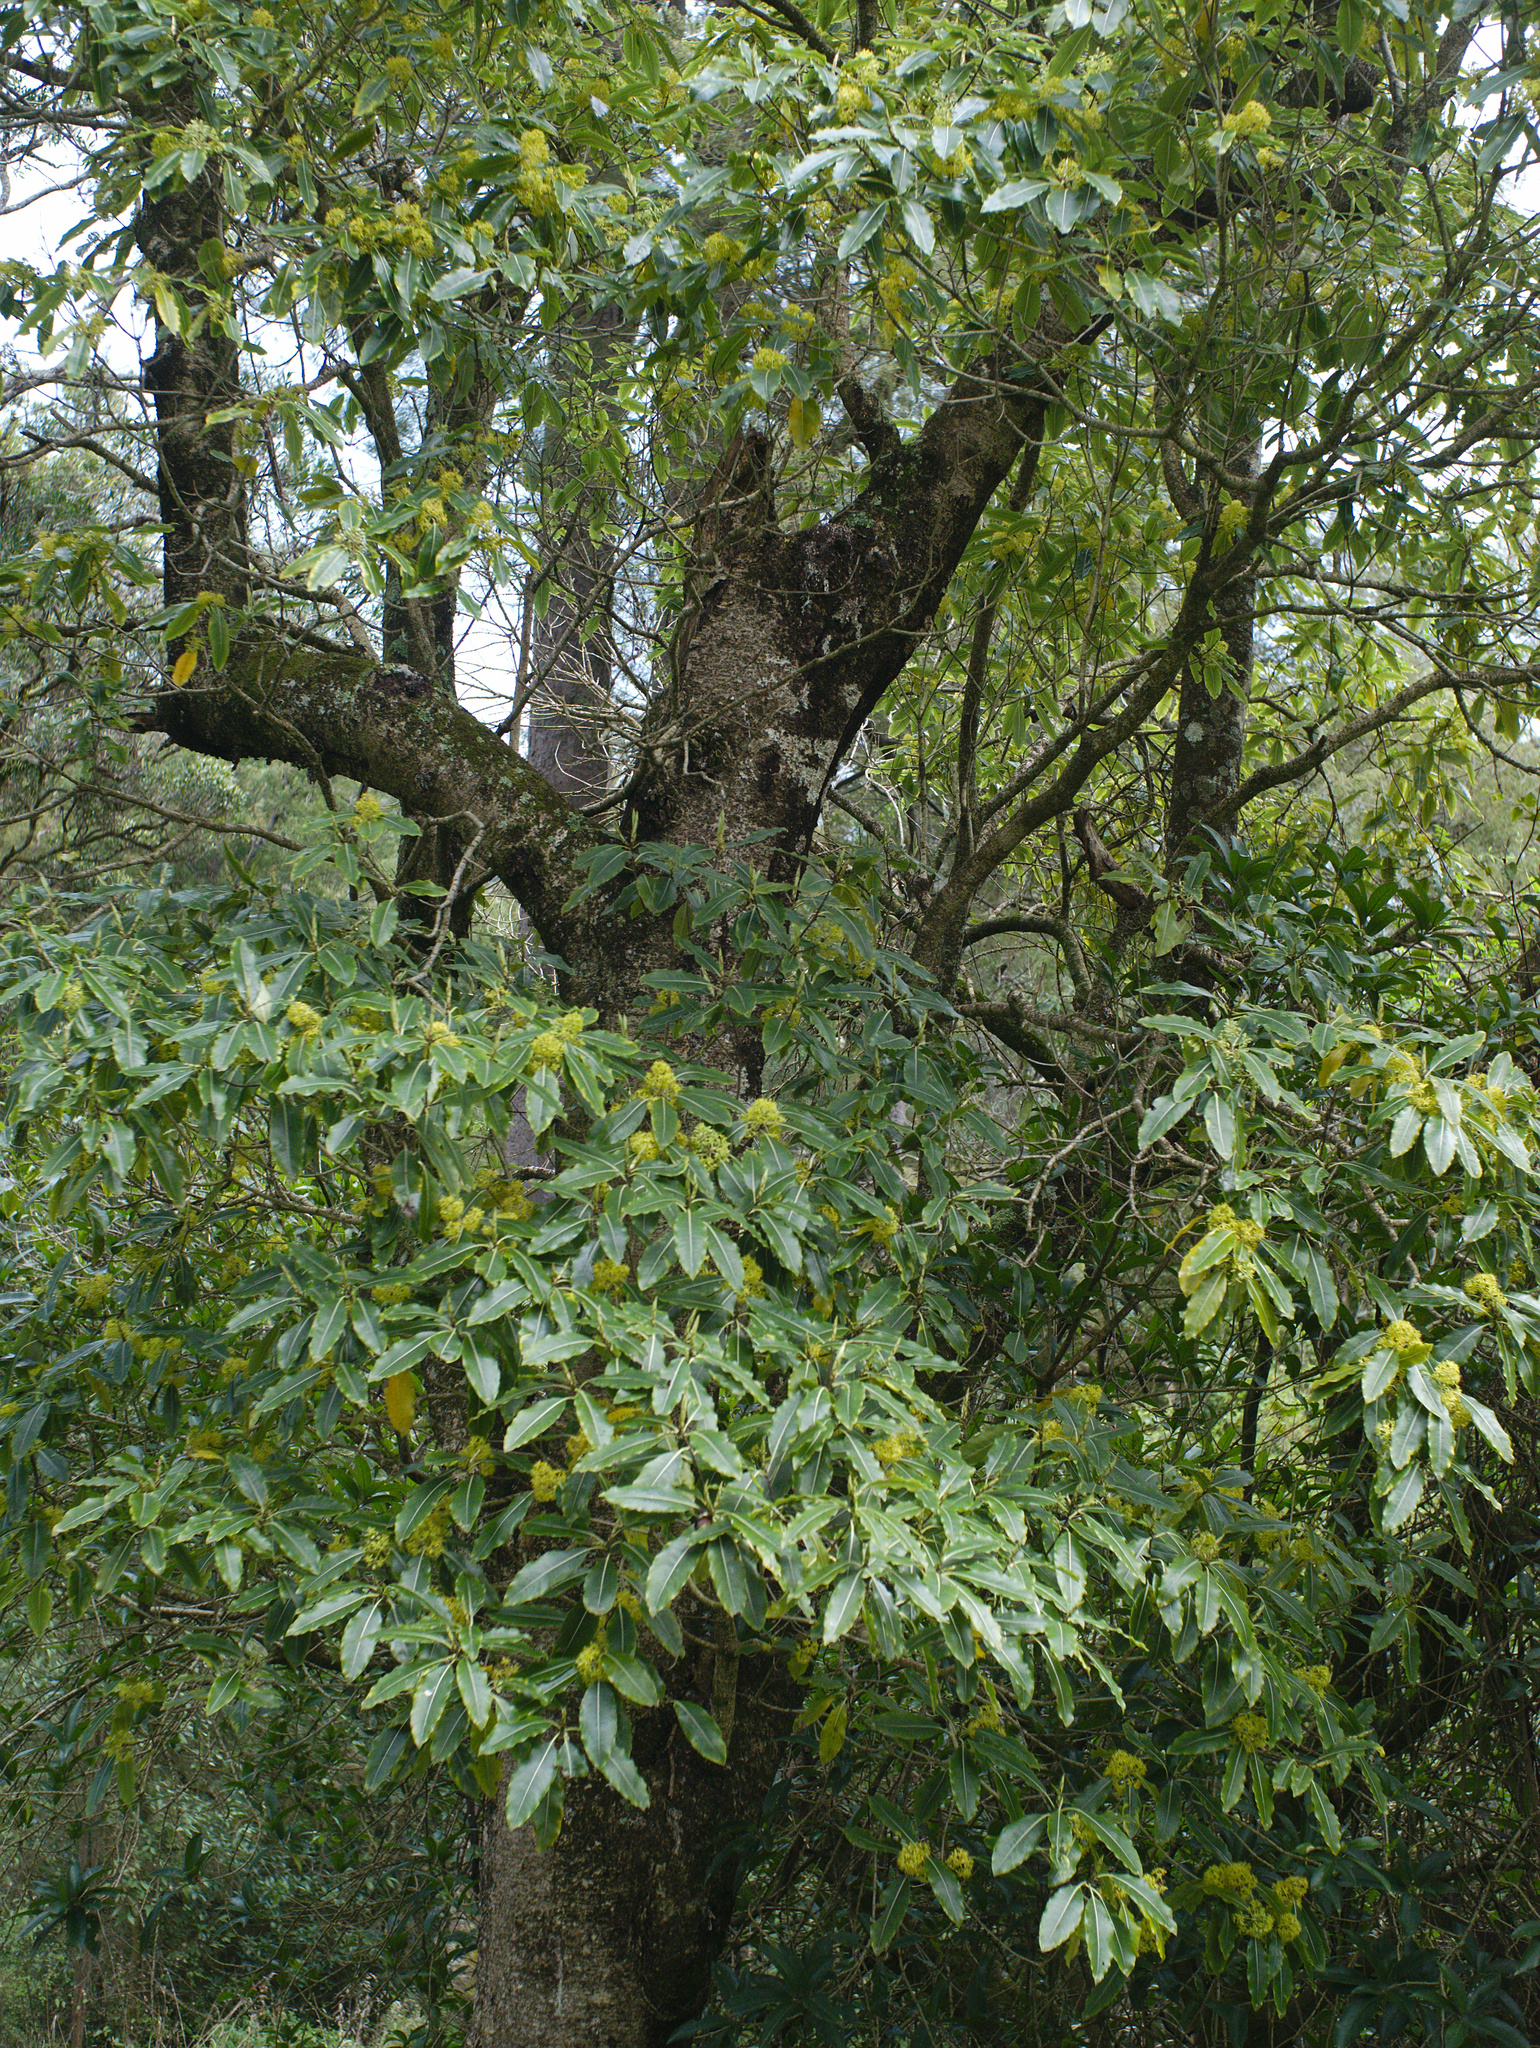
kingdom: Plantae
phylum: Tracheophyta
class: Magnoliopsida
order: Apiales
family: Pittosporaceae
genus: Pittosporum
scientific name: Pittosporum eugenioides
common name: Lemonwood
